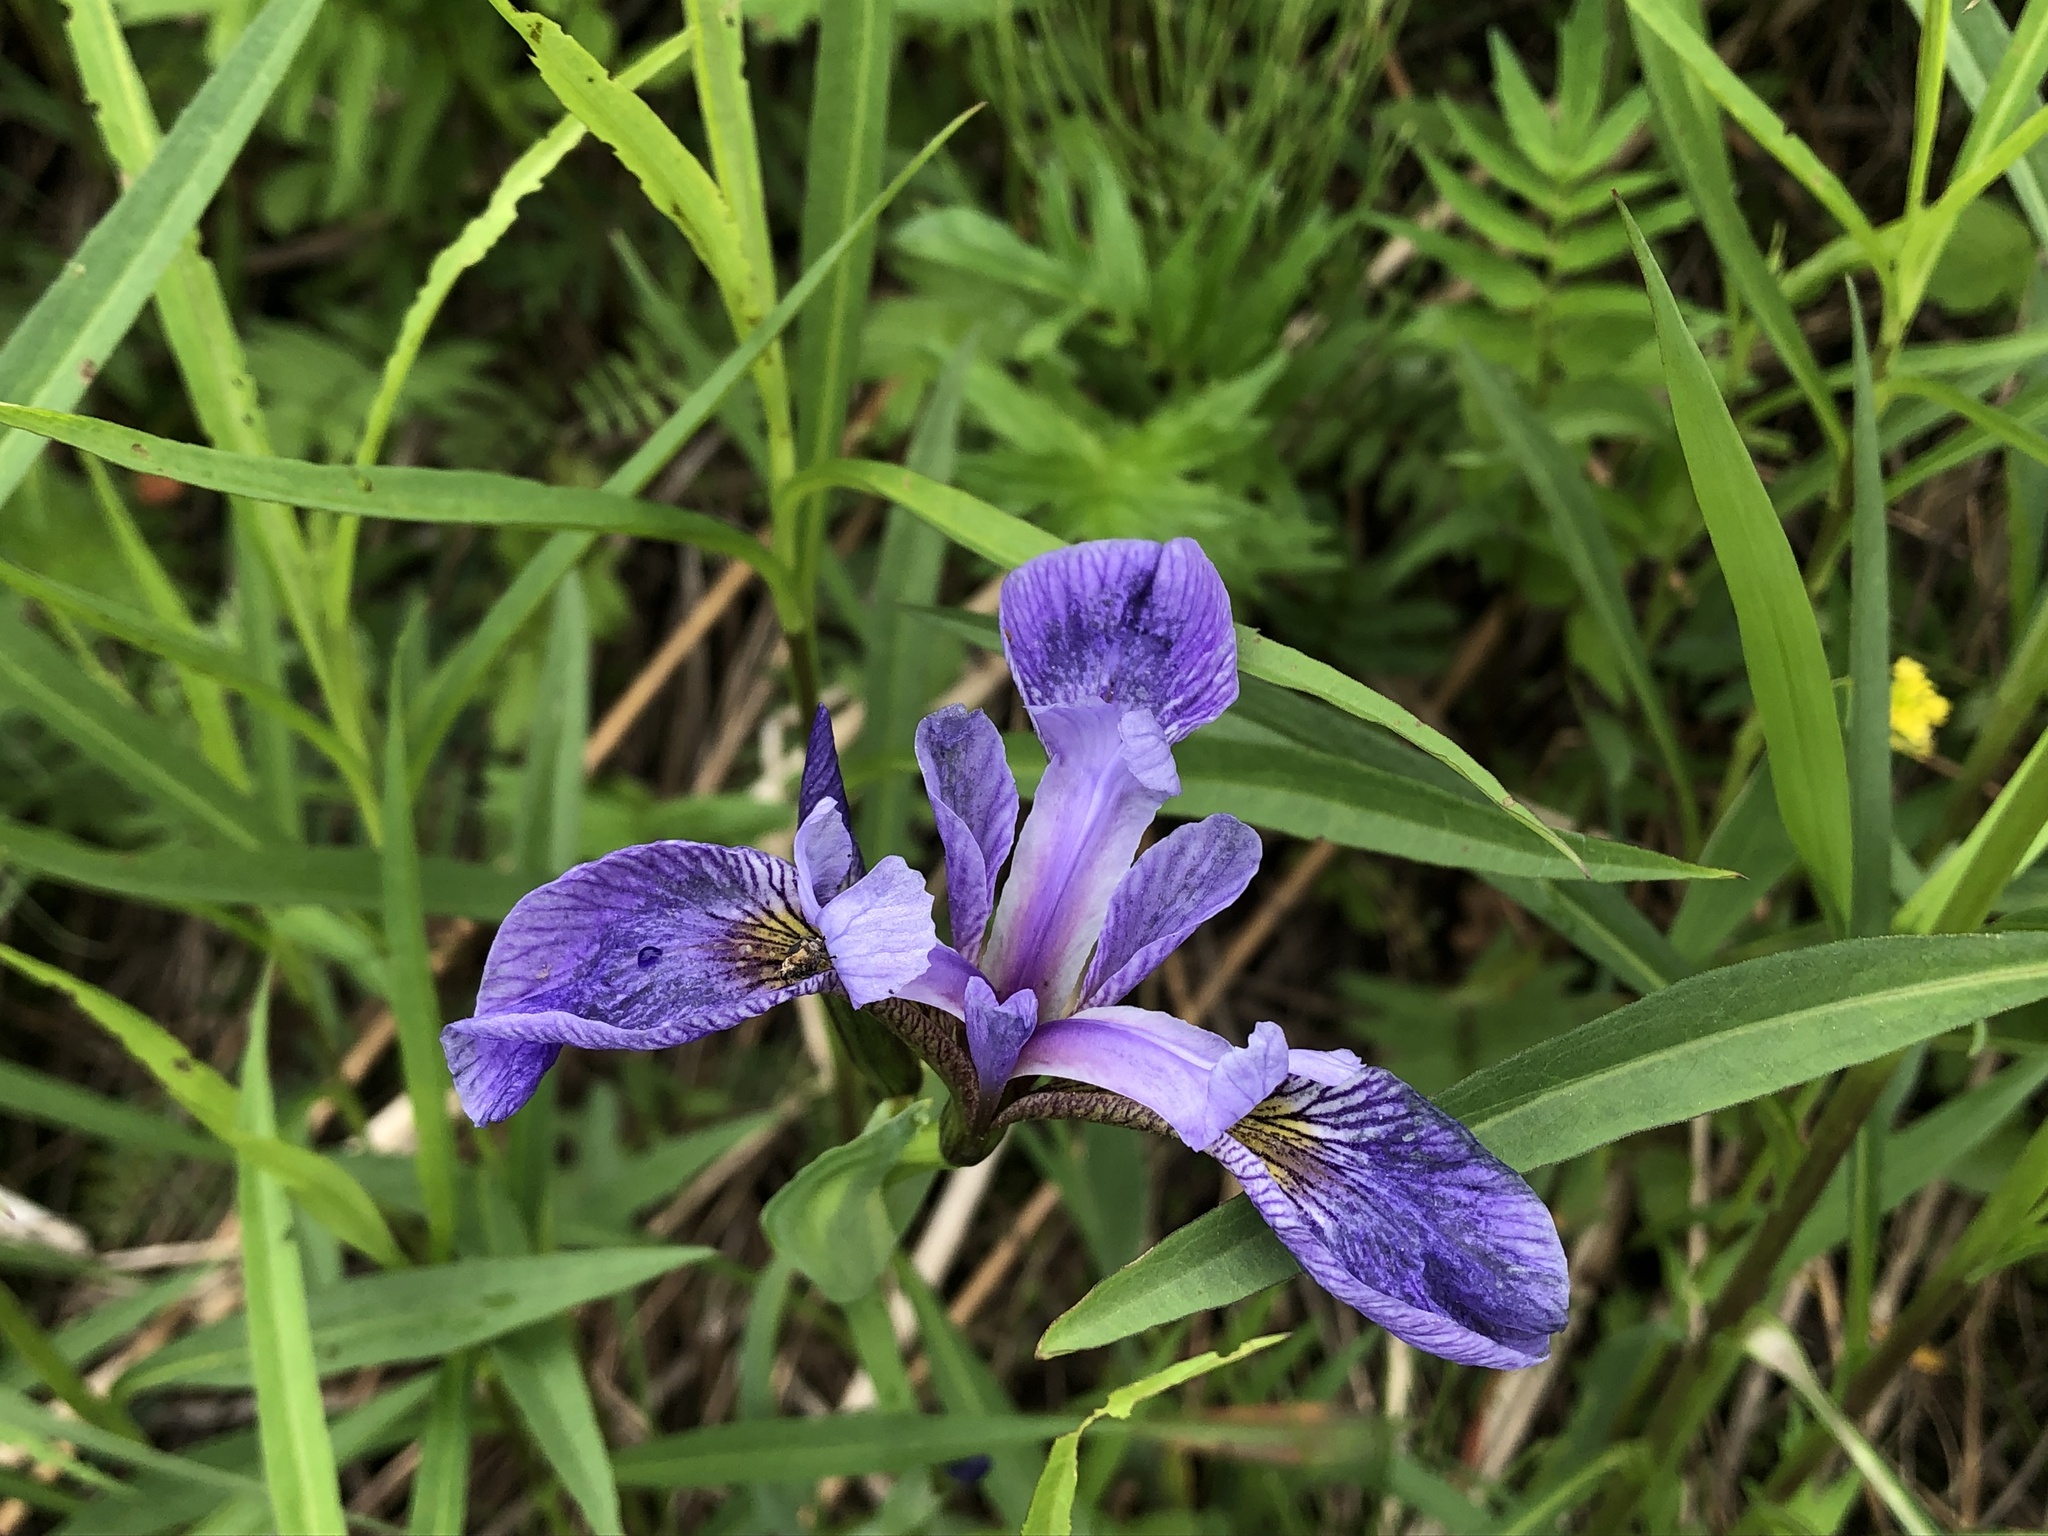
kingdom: Plantae
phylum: Tracheophyta
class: Liliopsida
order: Asparagales
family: Iridaceae
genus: Iris
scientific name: Iris versicolor
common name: Purple iris
